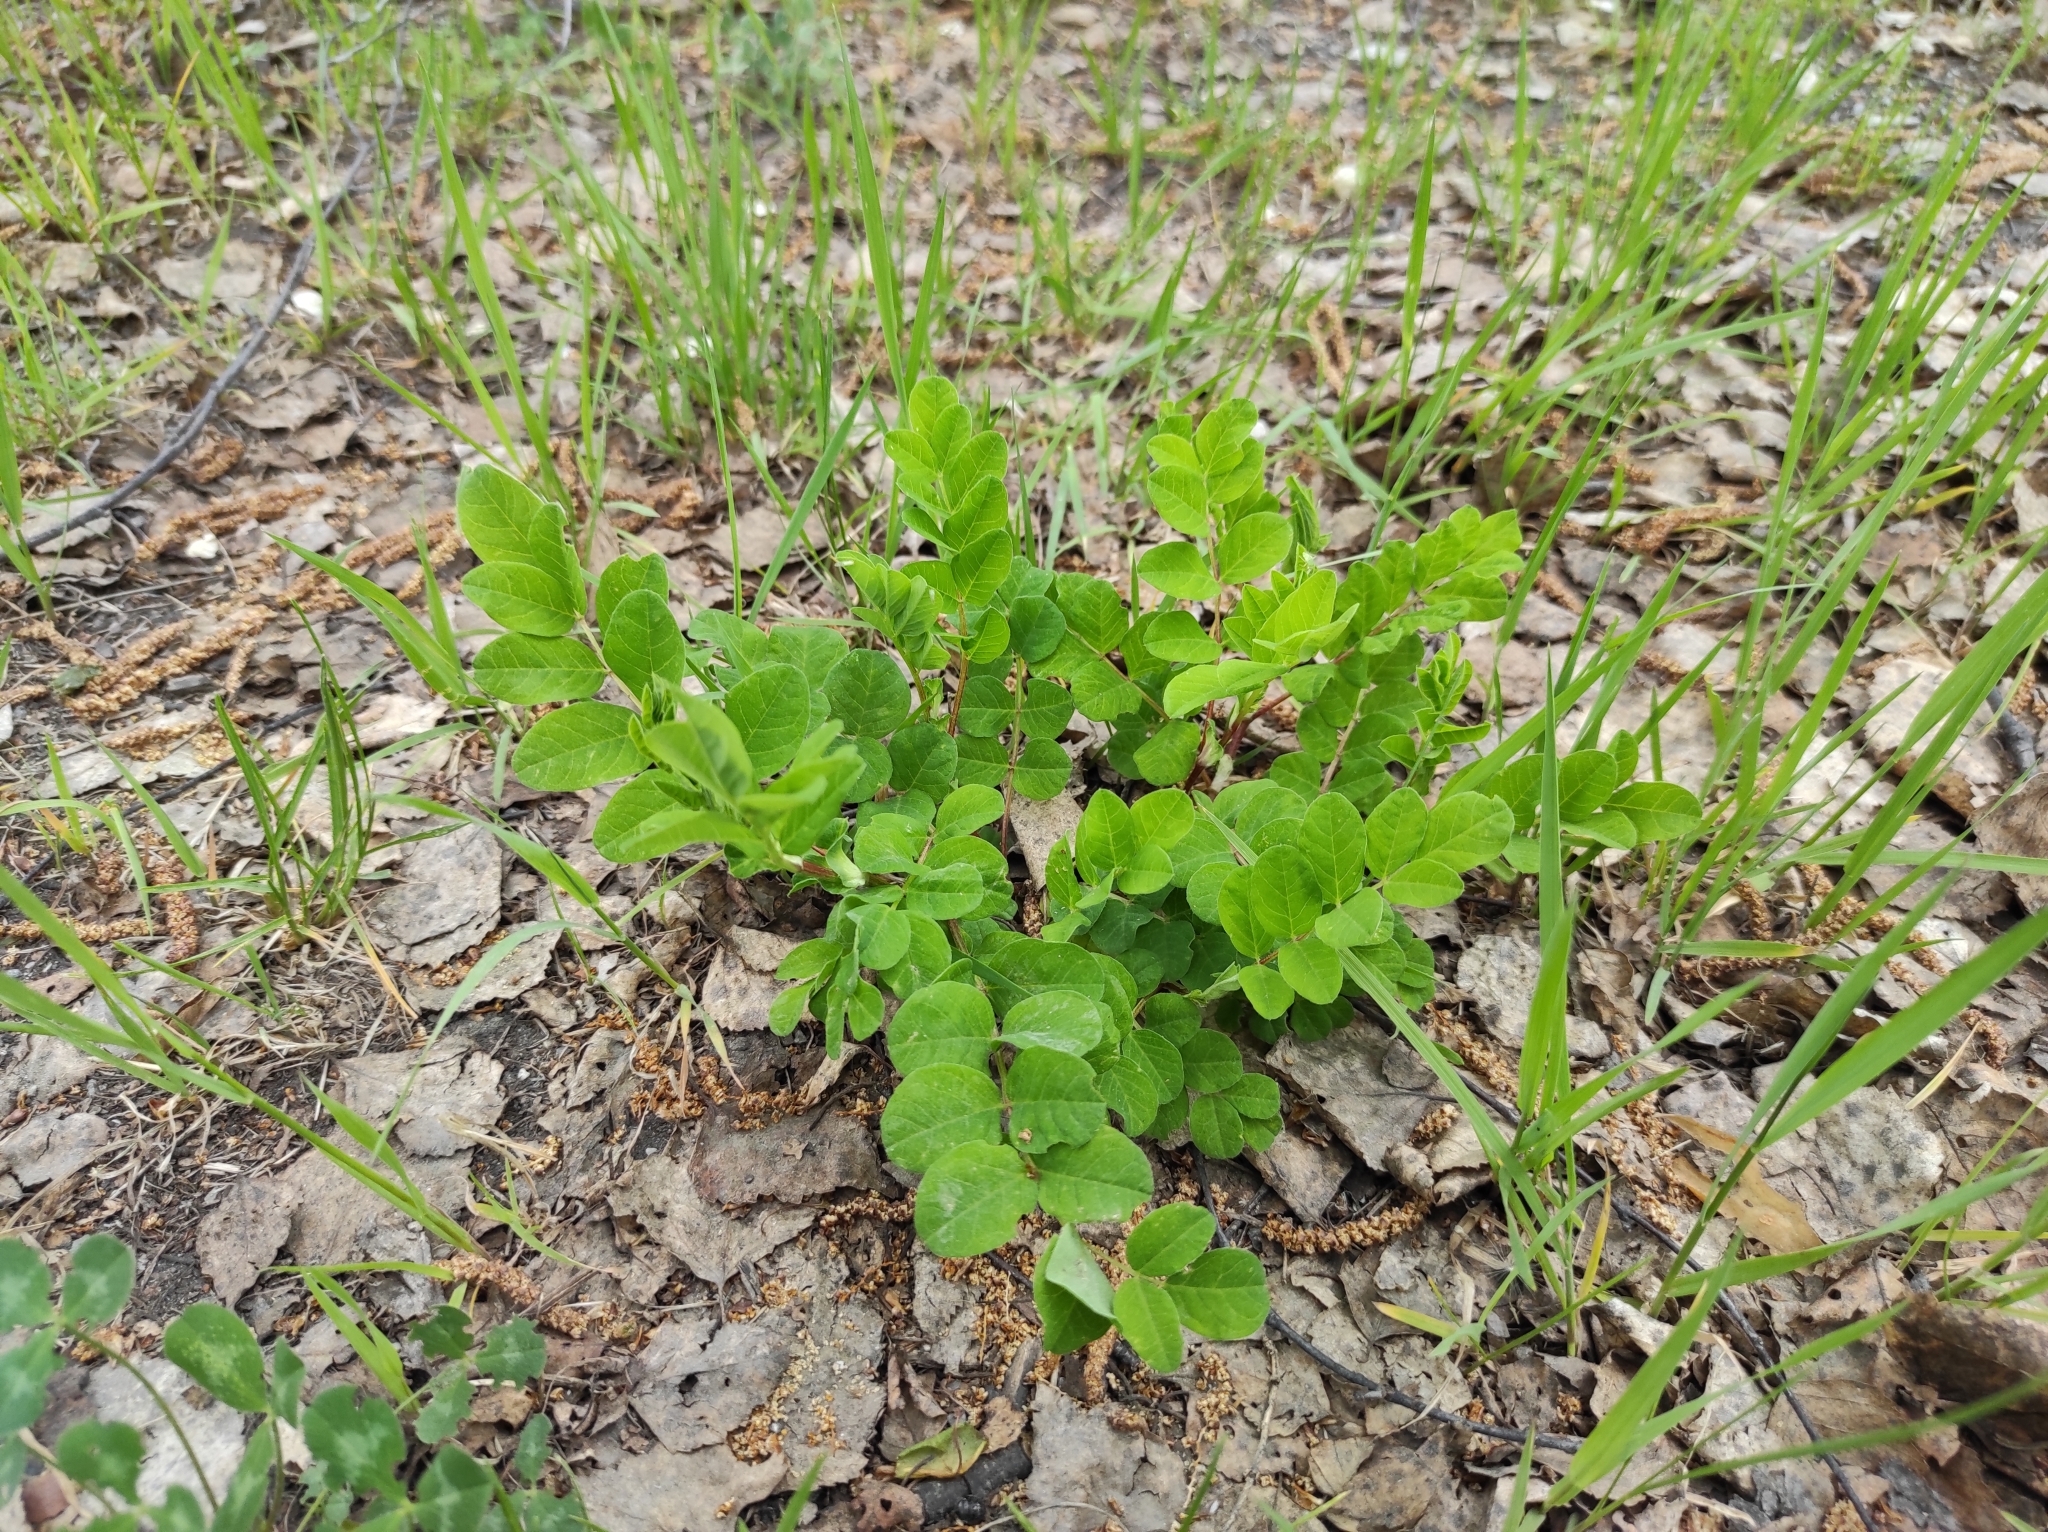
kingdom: Plantae
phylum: Tracheophyta
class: Magnoliopsida
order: Fabales
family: Fabaceae
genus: Astragalus
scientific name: Astragalus glycyphyllos
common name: Wild liquorice
